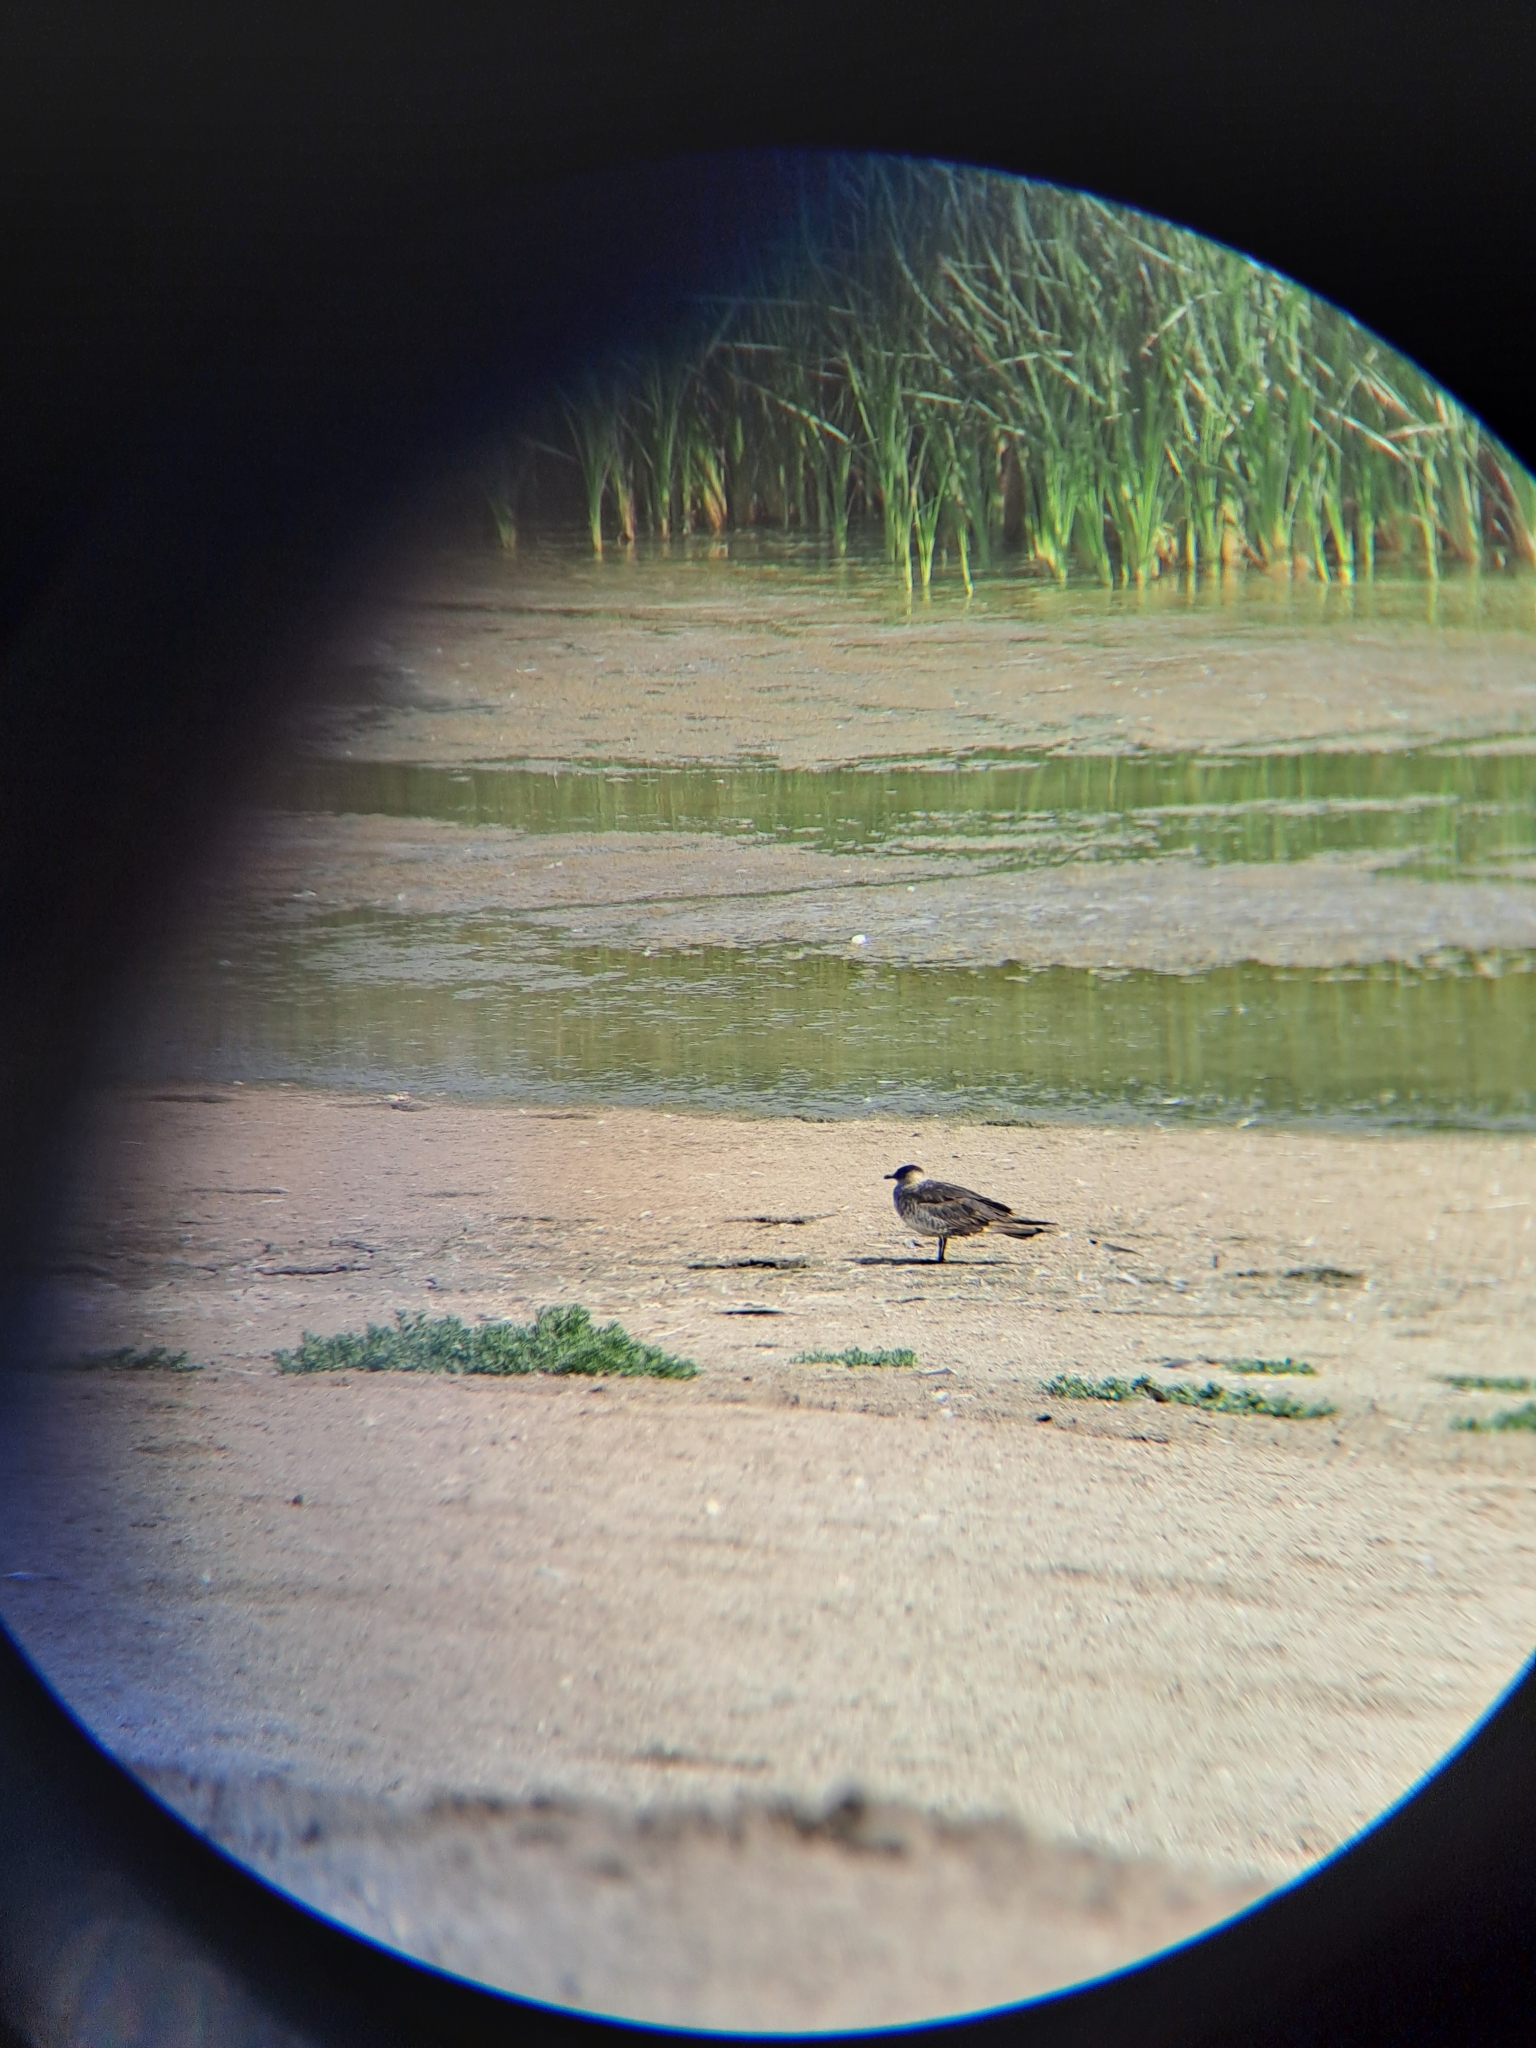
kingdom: Animalia
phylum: Chordata
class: Aves
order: Charadriiformes
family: Stercorariidae
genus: Stercorarius
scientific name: Stercorarius parasiticus
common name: Parasitic jaeger
